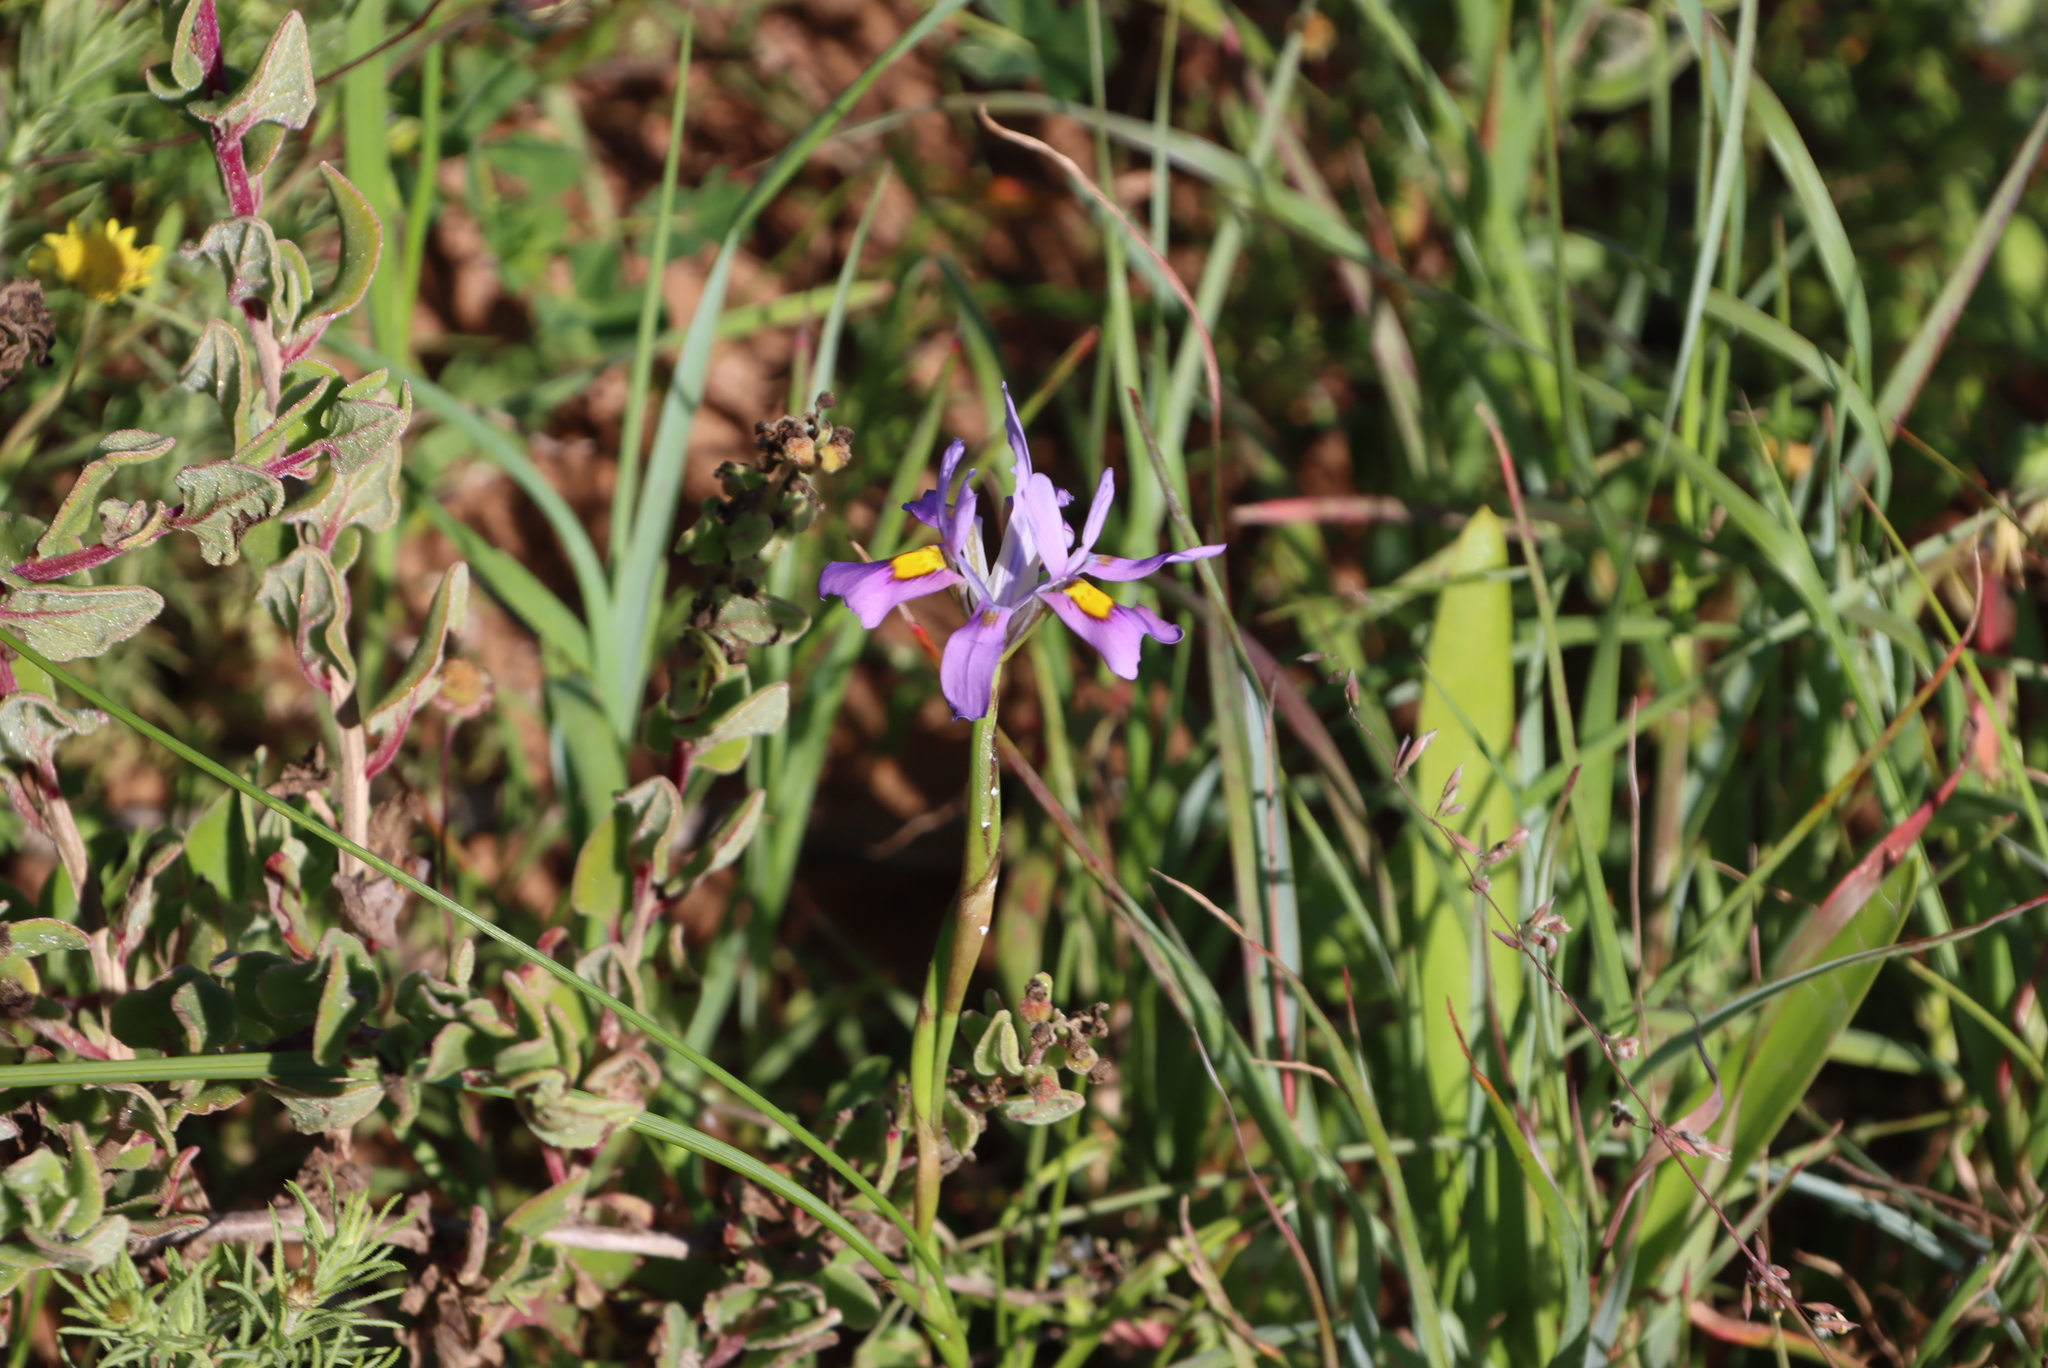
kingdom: Plantae
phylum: Tracheophyta
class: Liliopsida
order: Asparagales
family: Iridaceae
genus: Moraea
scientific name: Moraea fugax
